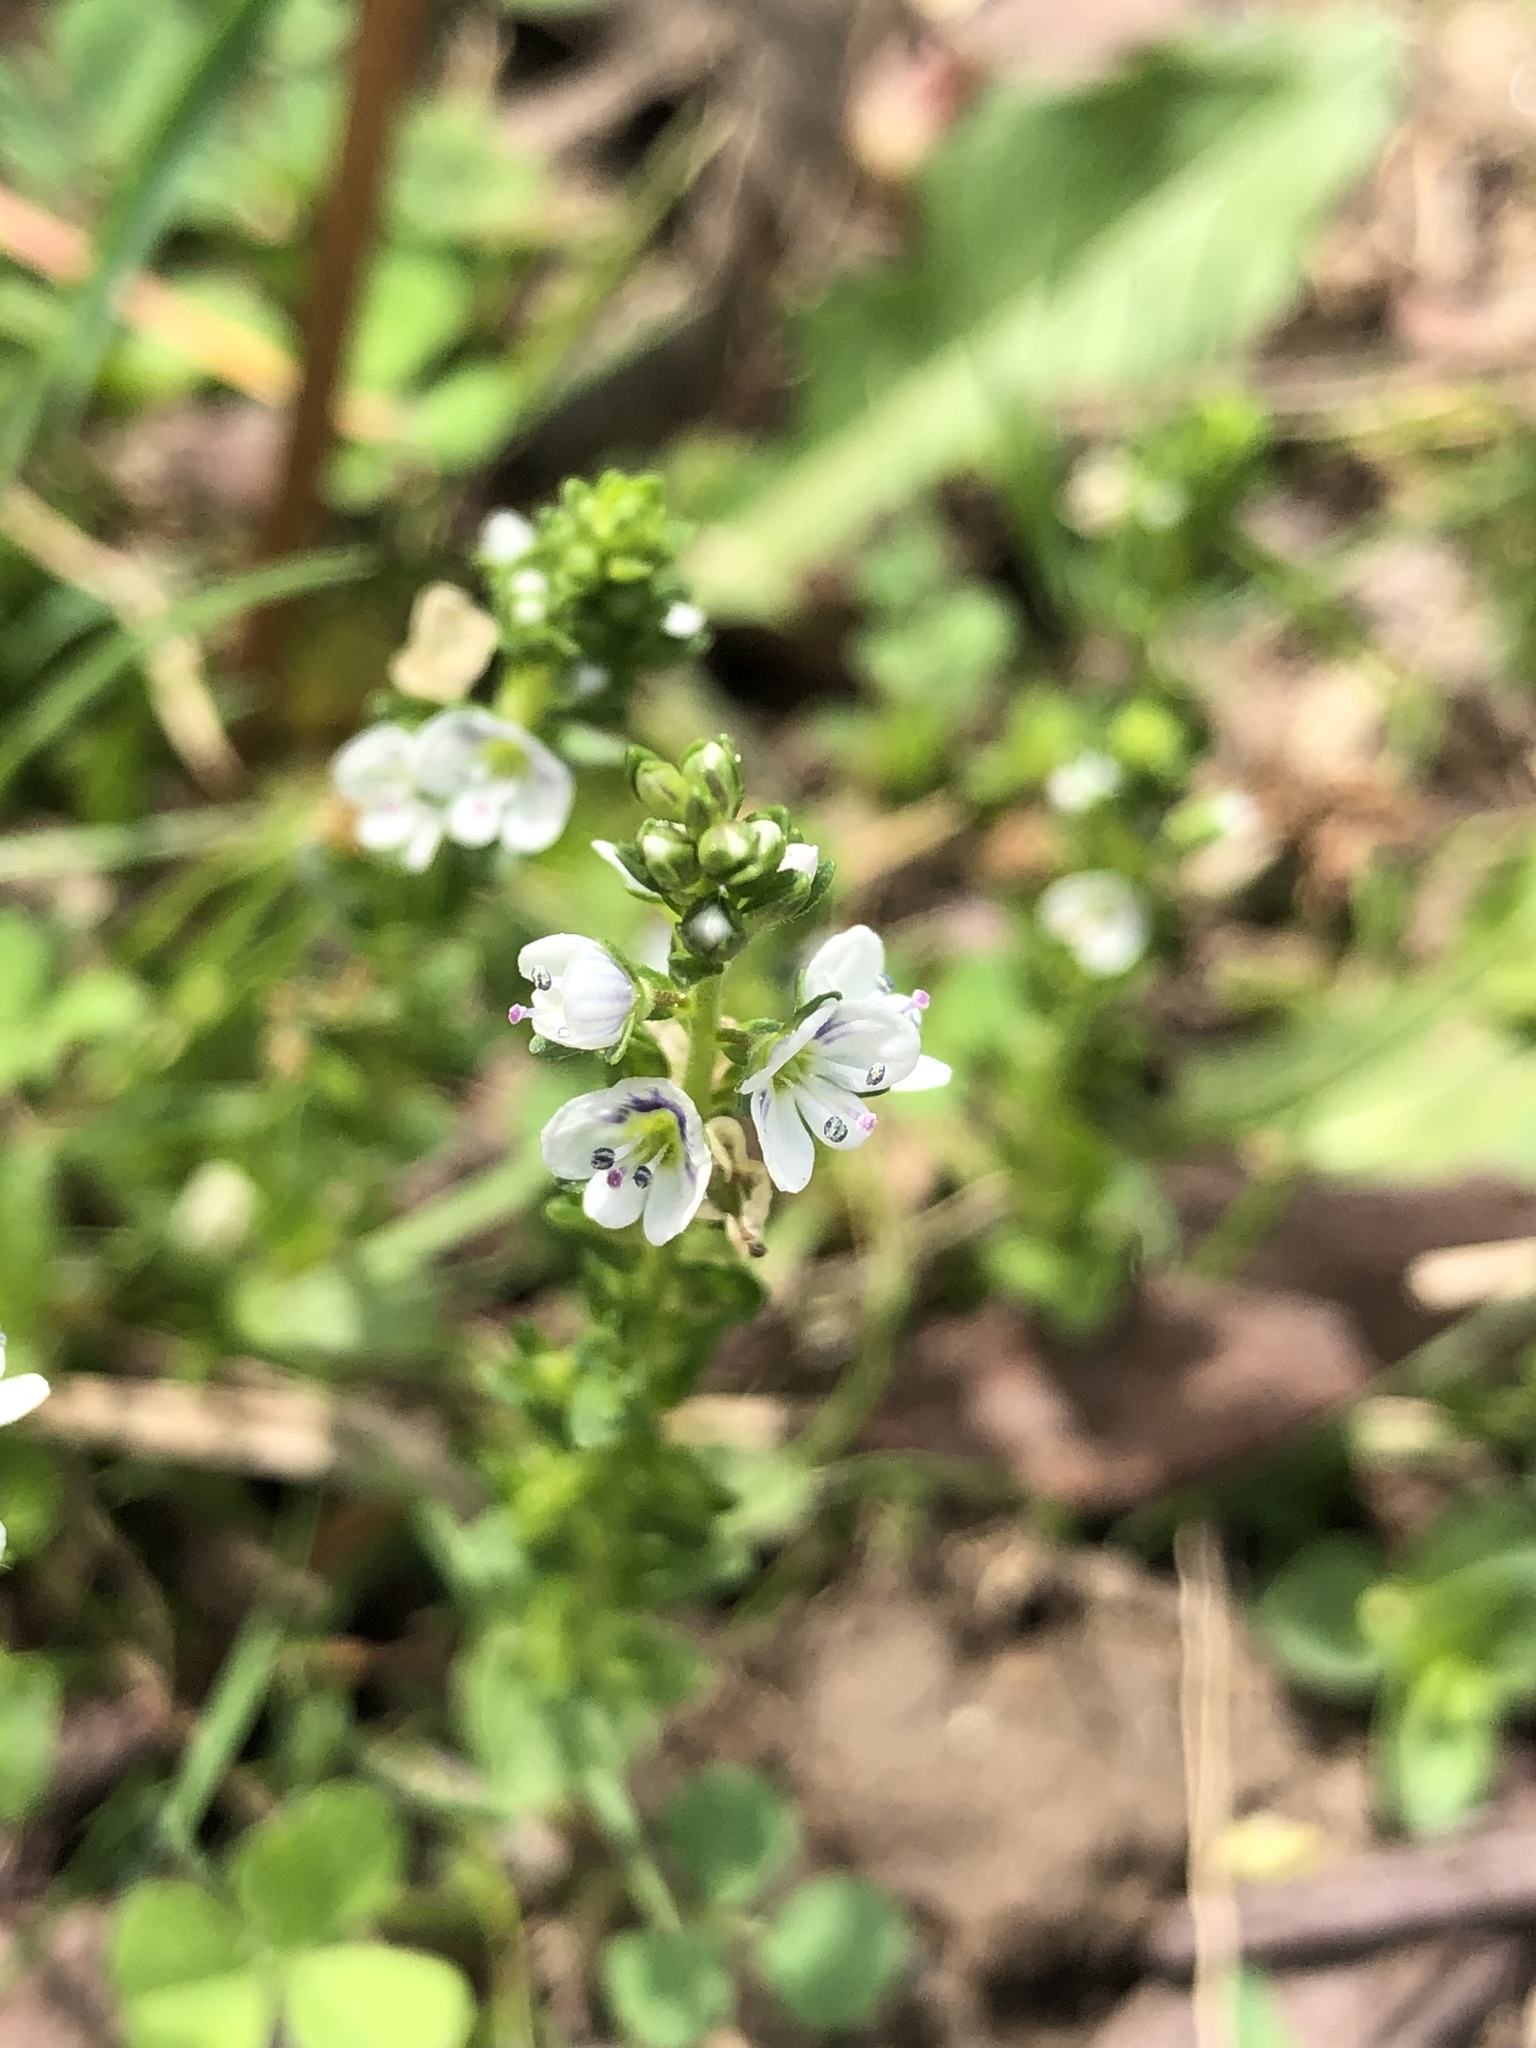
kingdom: Plantae
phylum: Tracheophyta
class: Magnoliopsida
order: Lamiales
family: Plantaginaceae
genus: Veronica
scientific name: Veronica serpyllifolia
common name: Thyme-leaved speedwell
